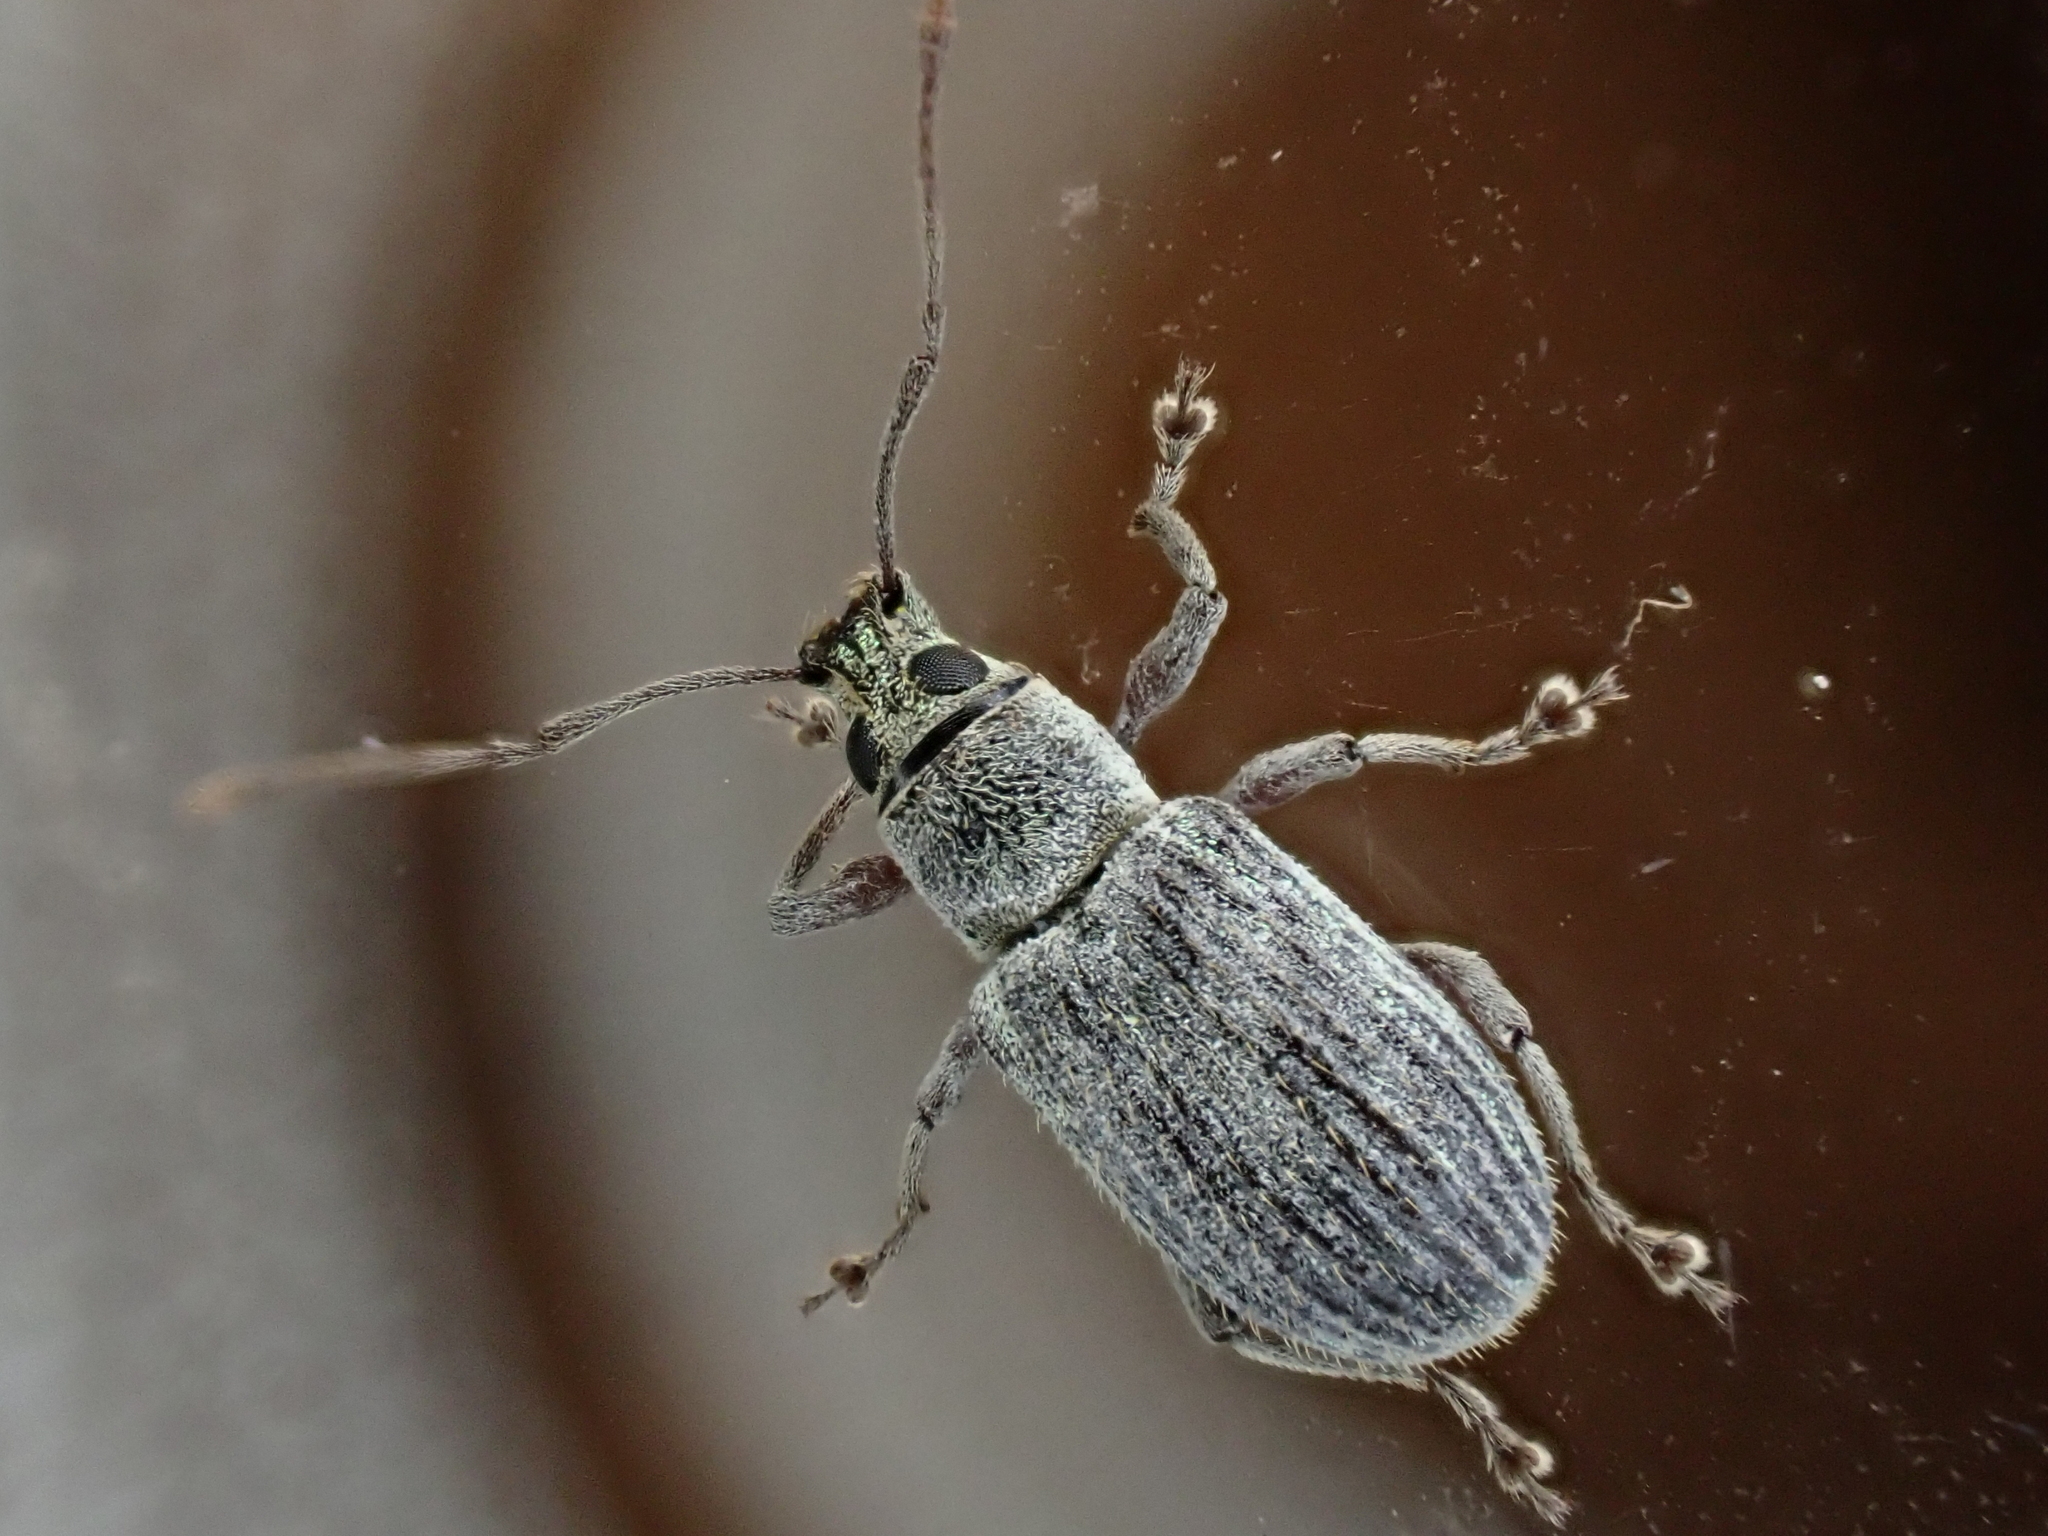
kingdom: Animalia
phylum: Arthropoda
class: Insecta
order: Coleoptera
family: Curculionidae
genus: Cyrtepistomus
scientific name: Cyrtepistomus castaneus
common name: Weevil
